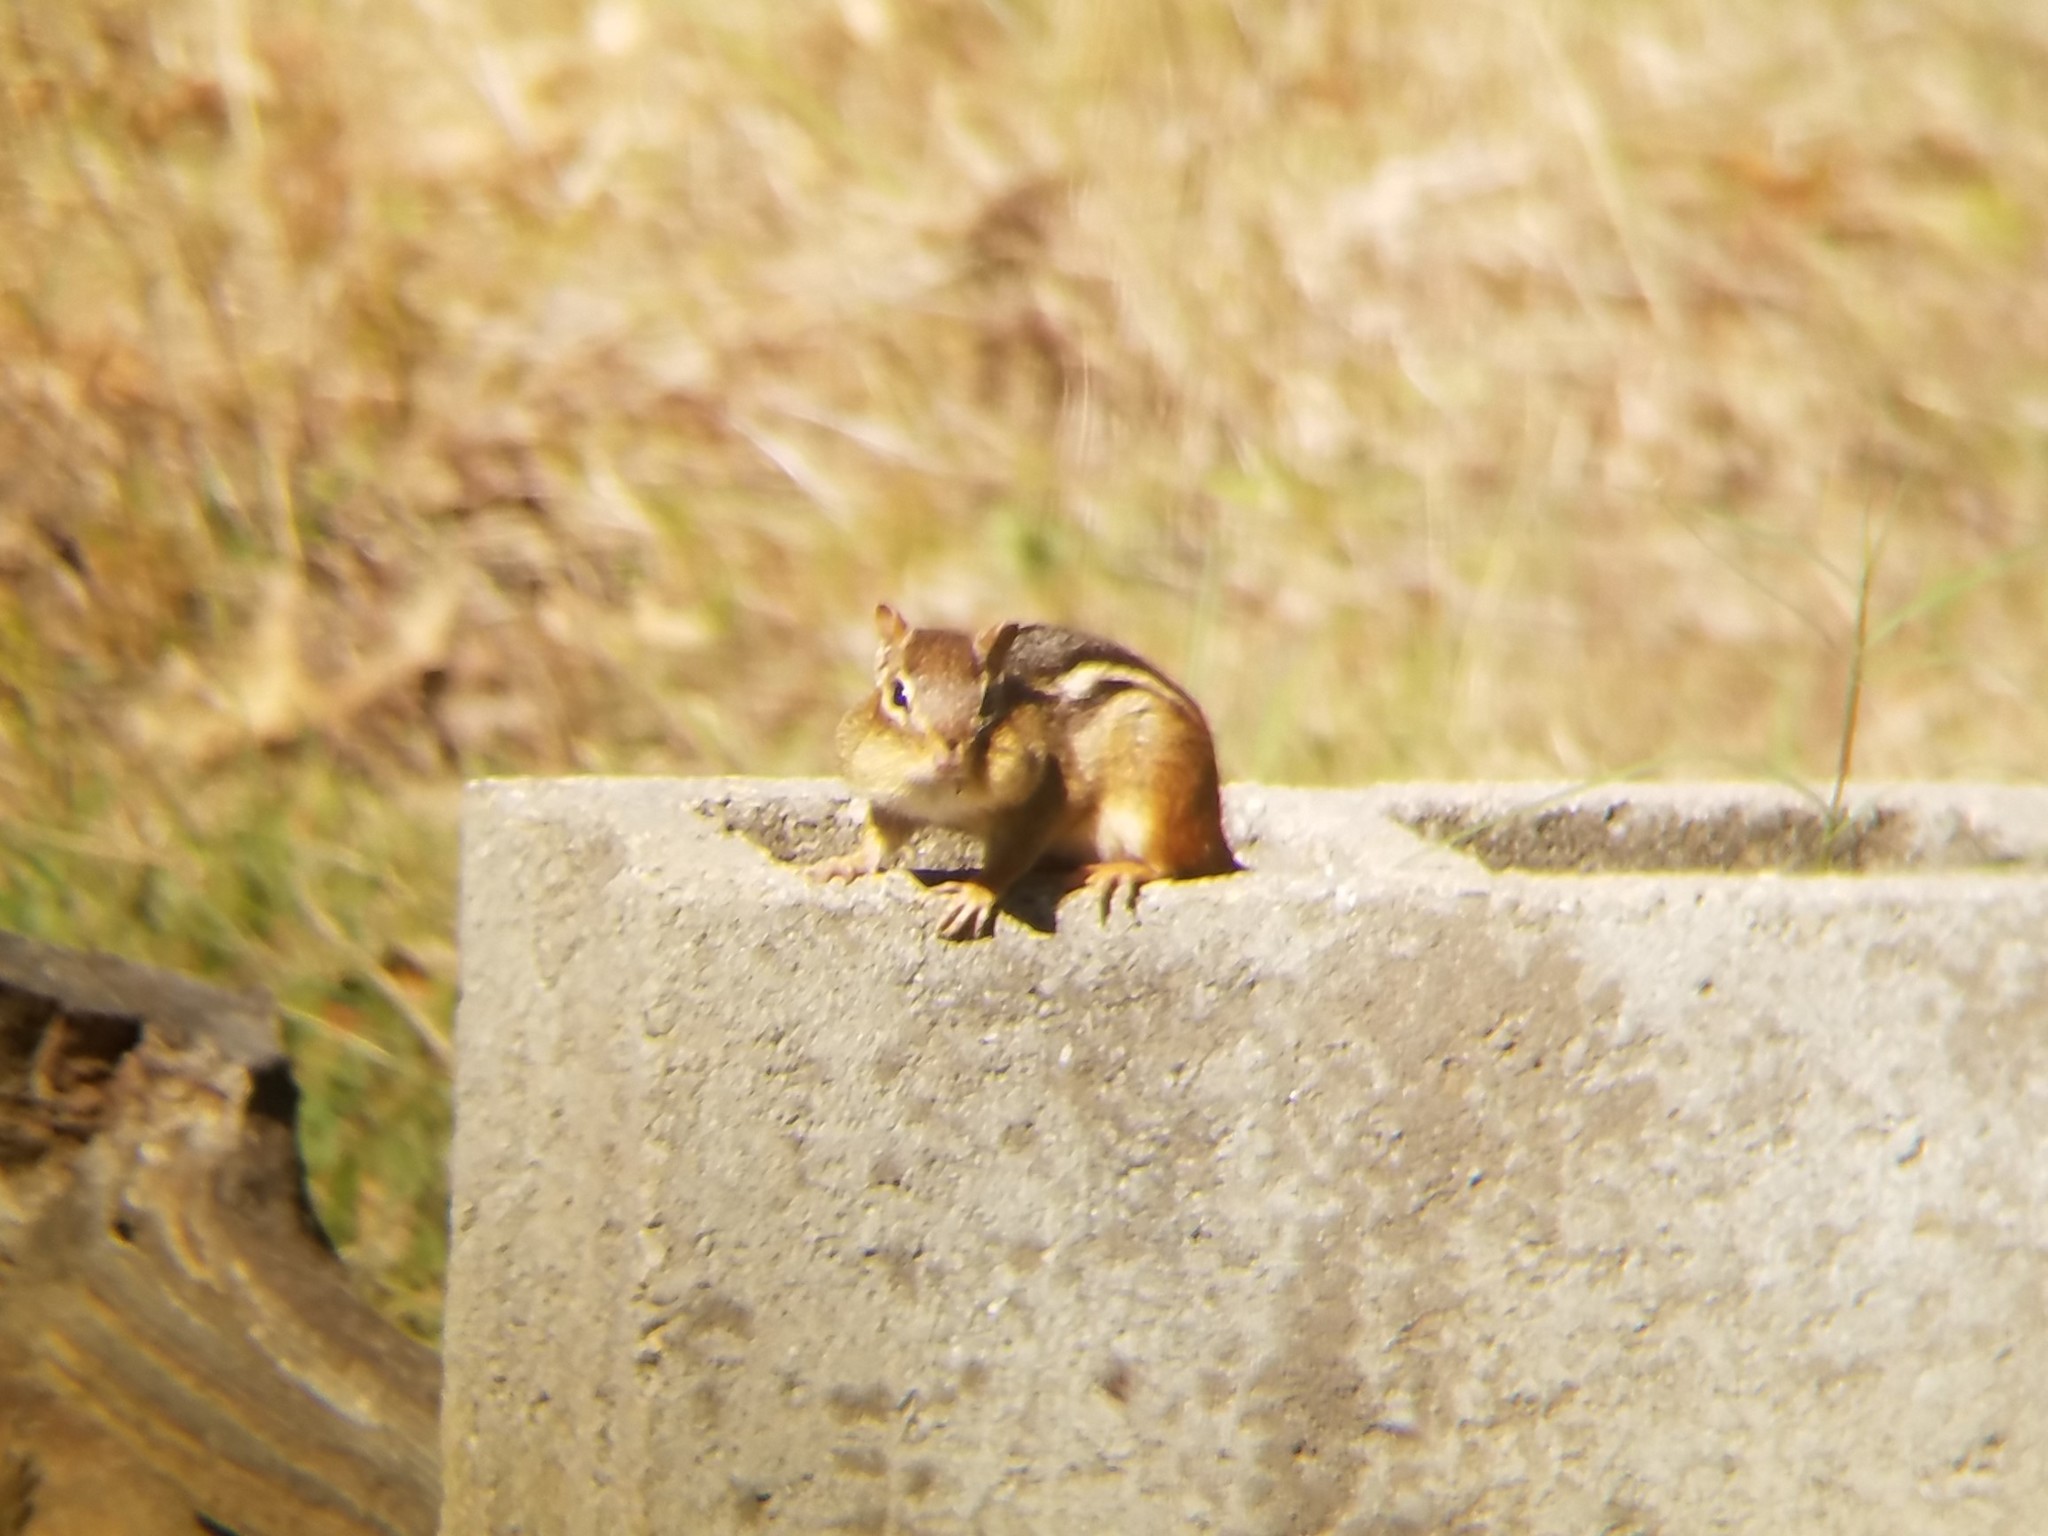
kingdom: Animalia
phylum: Chordata
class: Mammalia
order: Rodentia
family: Sciuridae
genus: Tamias
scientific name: Tamias striatus
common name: Eastern chipmunk
